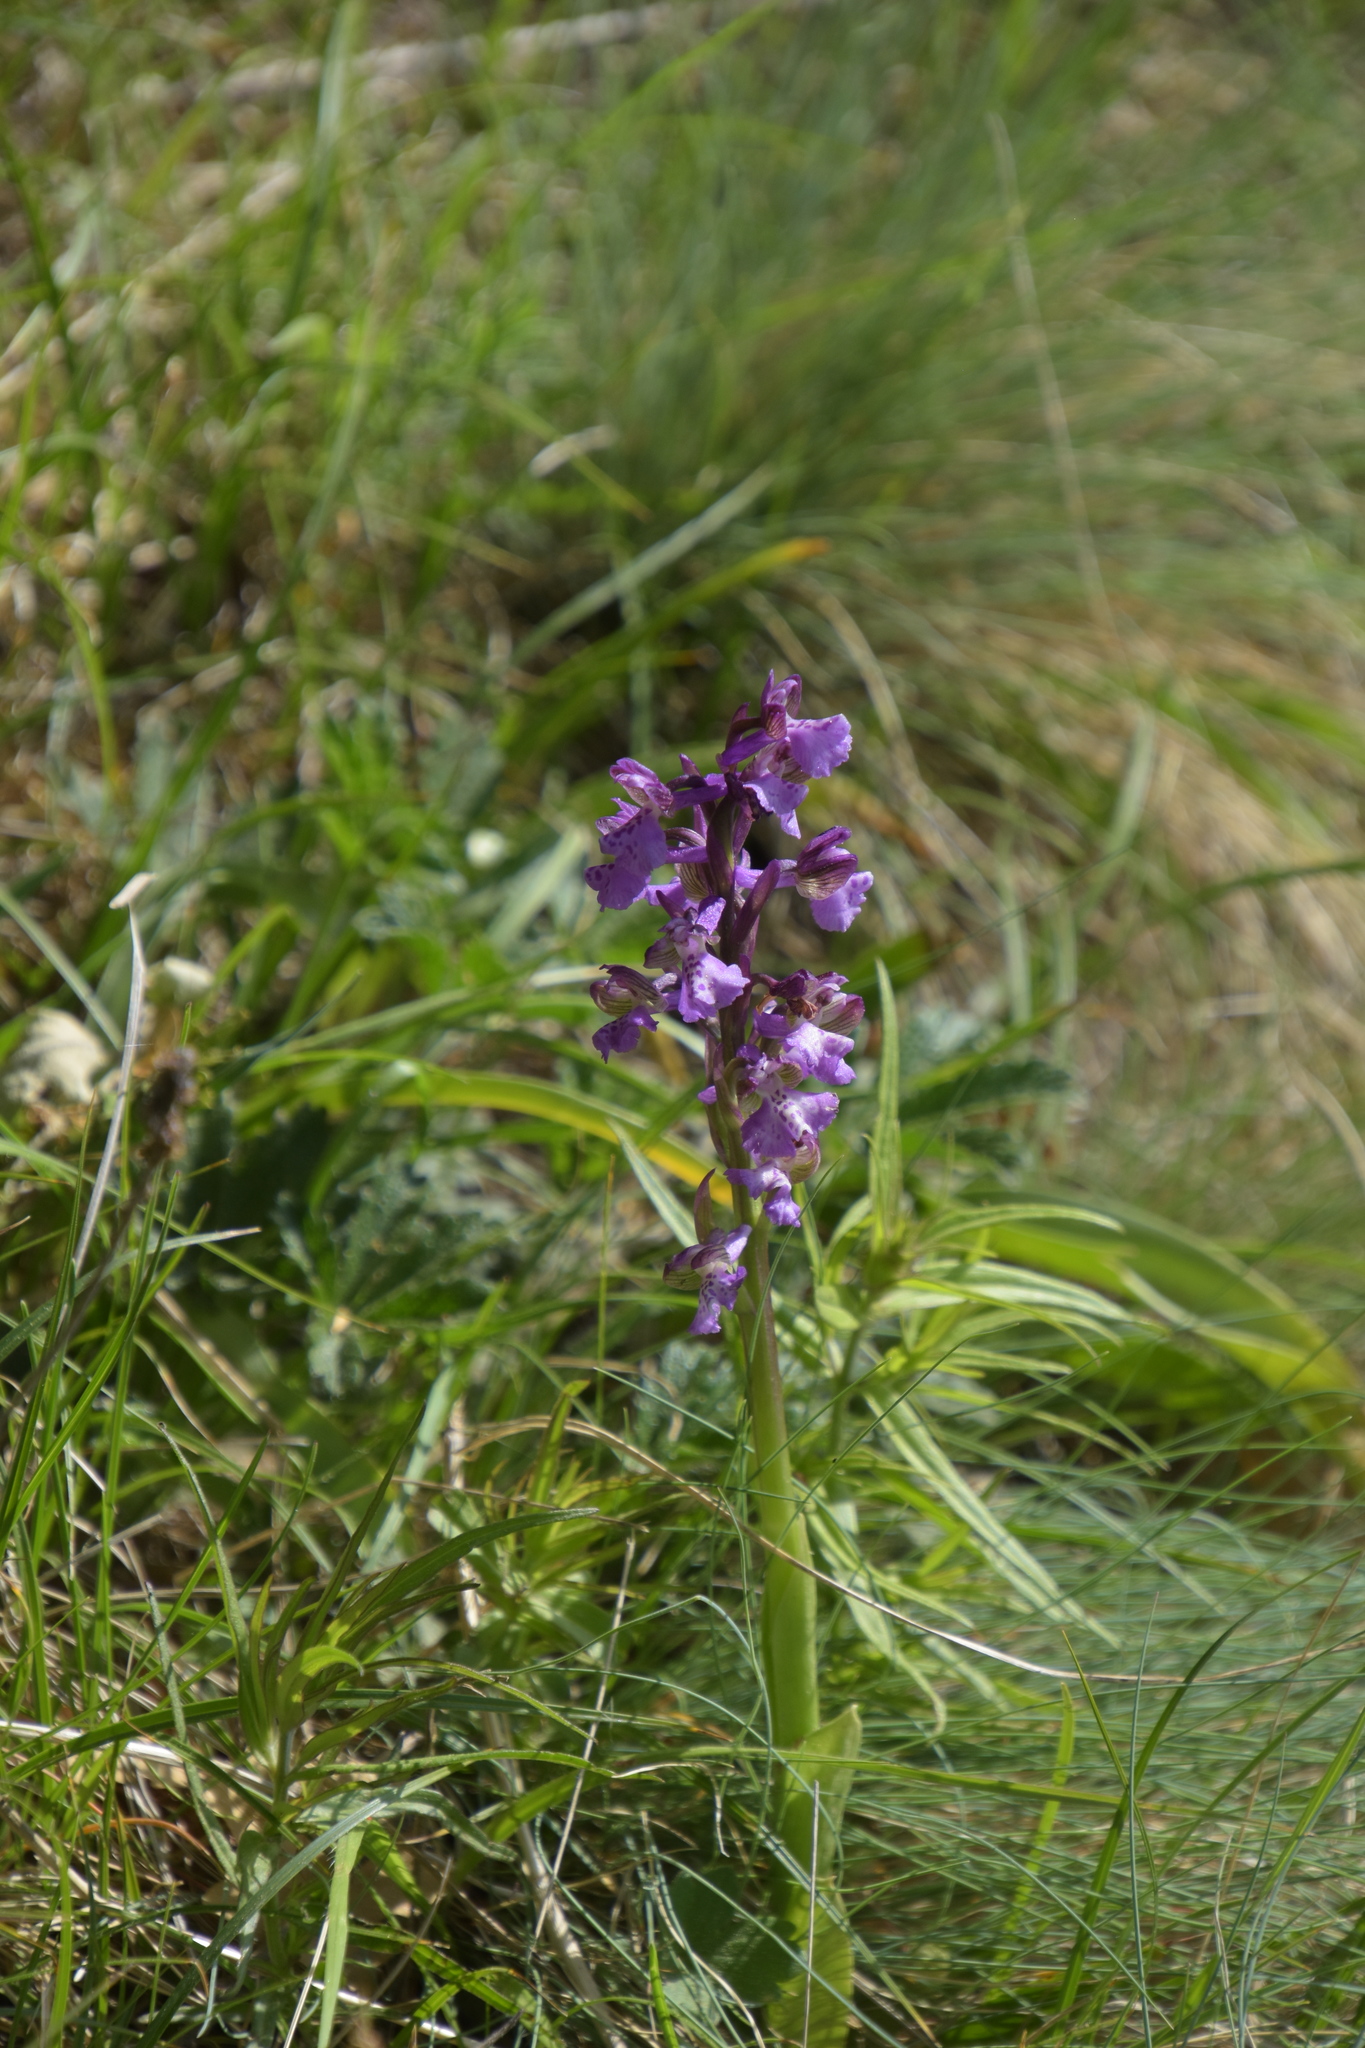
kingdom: Plantae
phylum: Tracheophyta
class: Liliopsida
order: Asparagales
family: Orchidaceae
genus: Anacamptis
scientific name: Anacamptis morio
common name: Green-winged orchid
